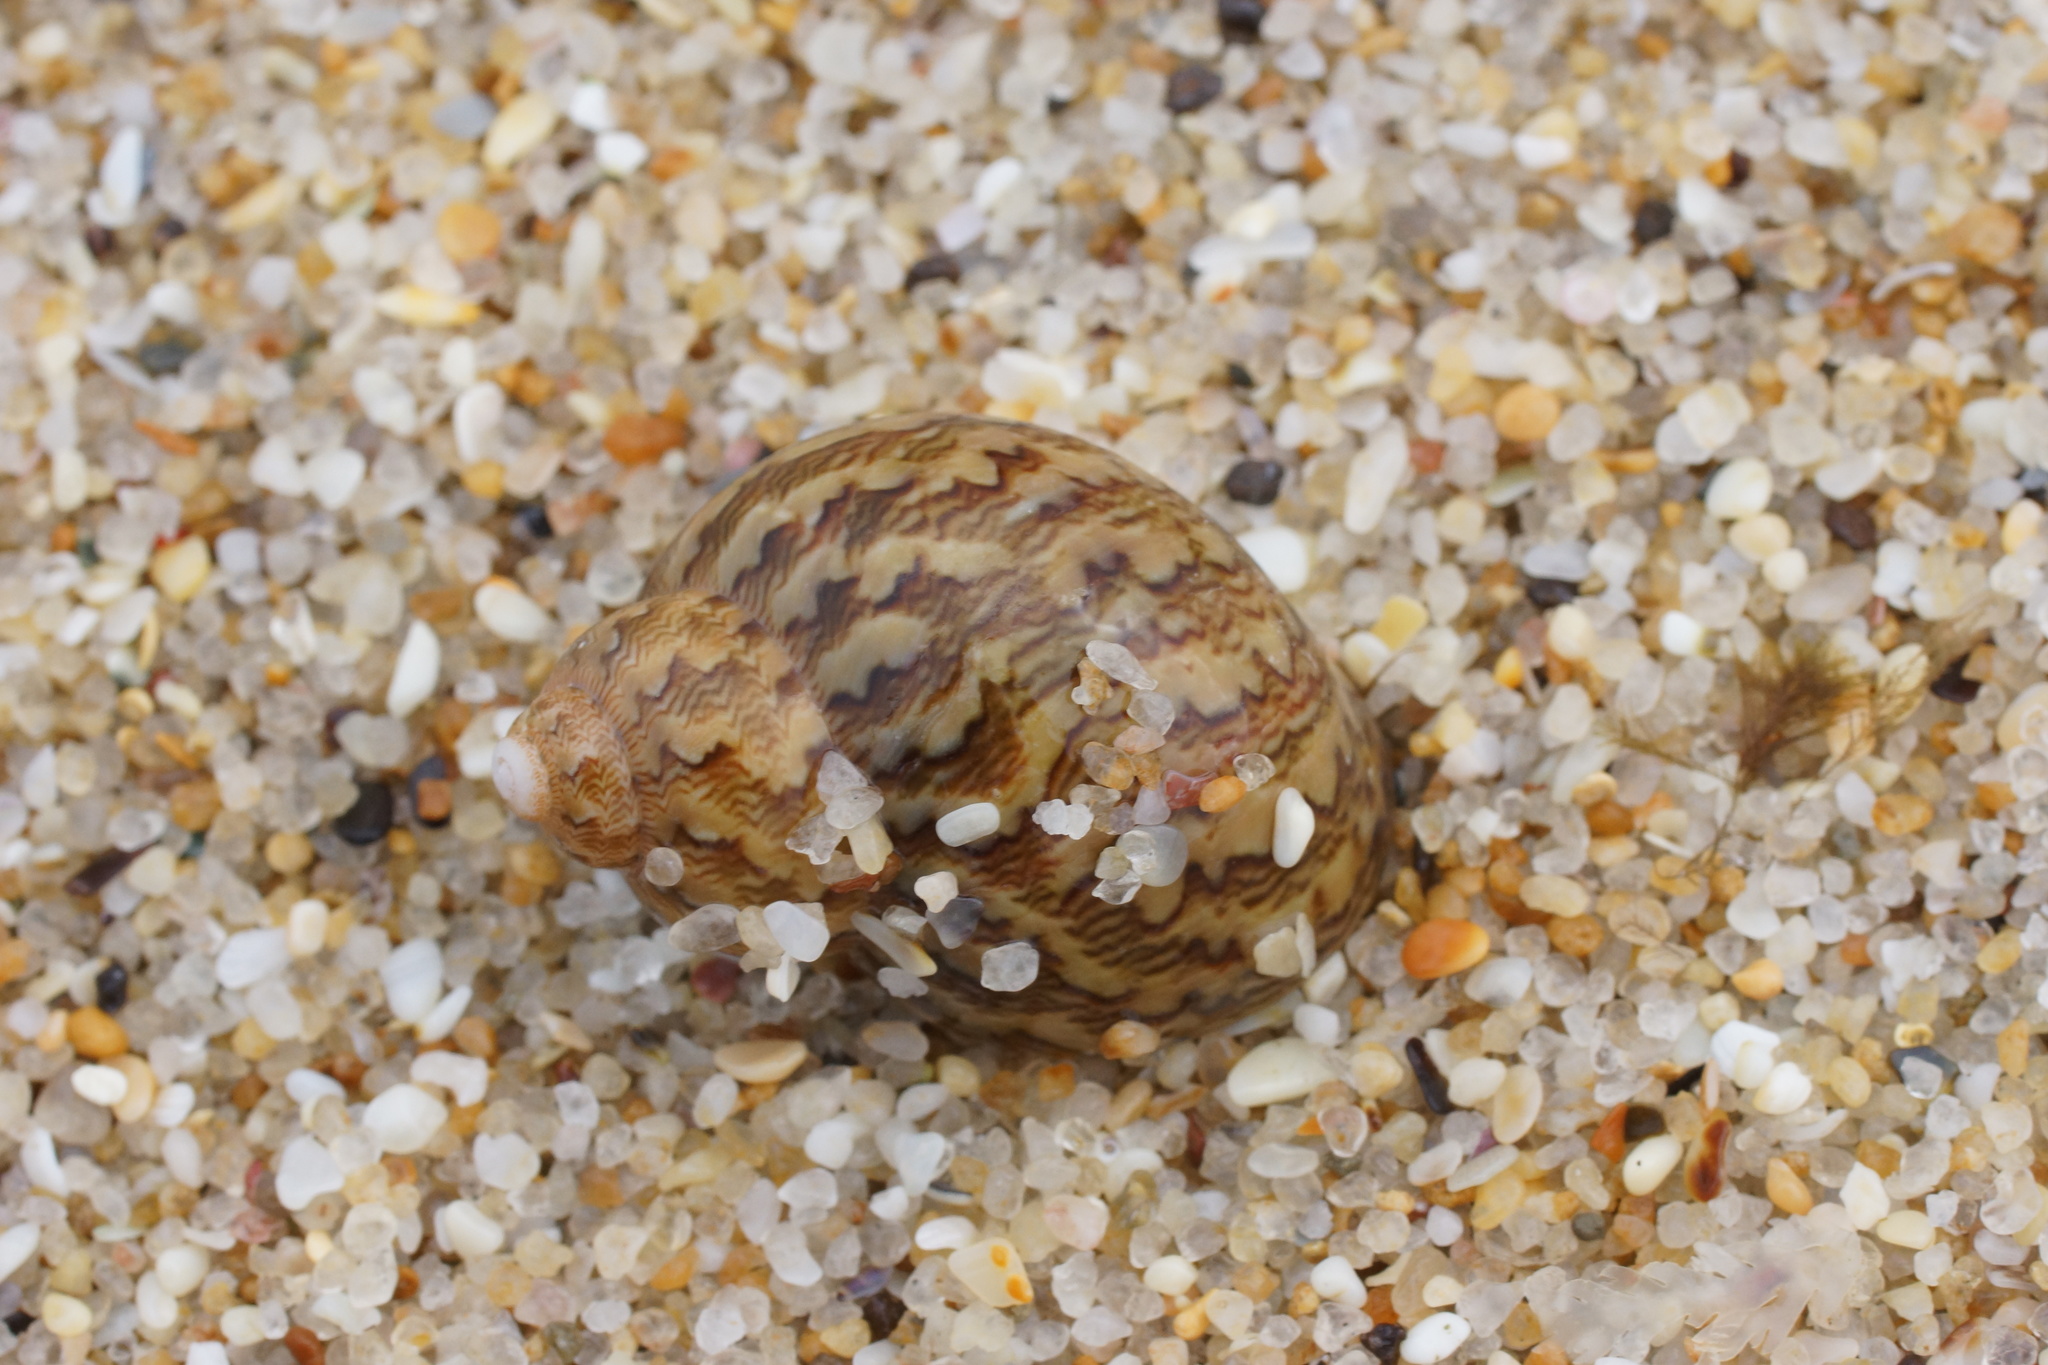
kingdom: Animalia
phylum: Mollusca
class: Gastropoda
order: Trochida
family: Phasianellidae
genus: Phasianella
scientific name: Phasianella ventricosa
